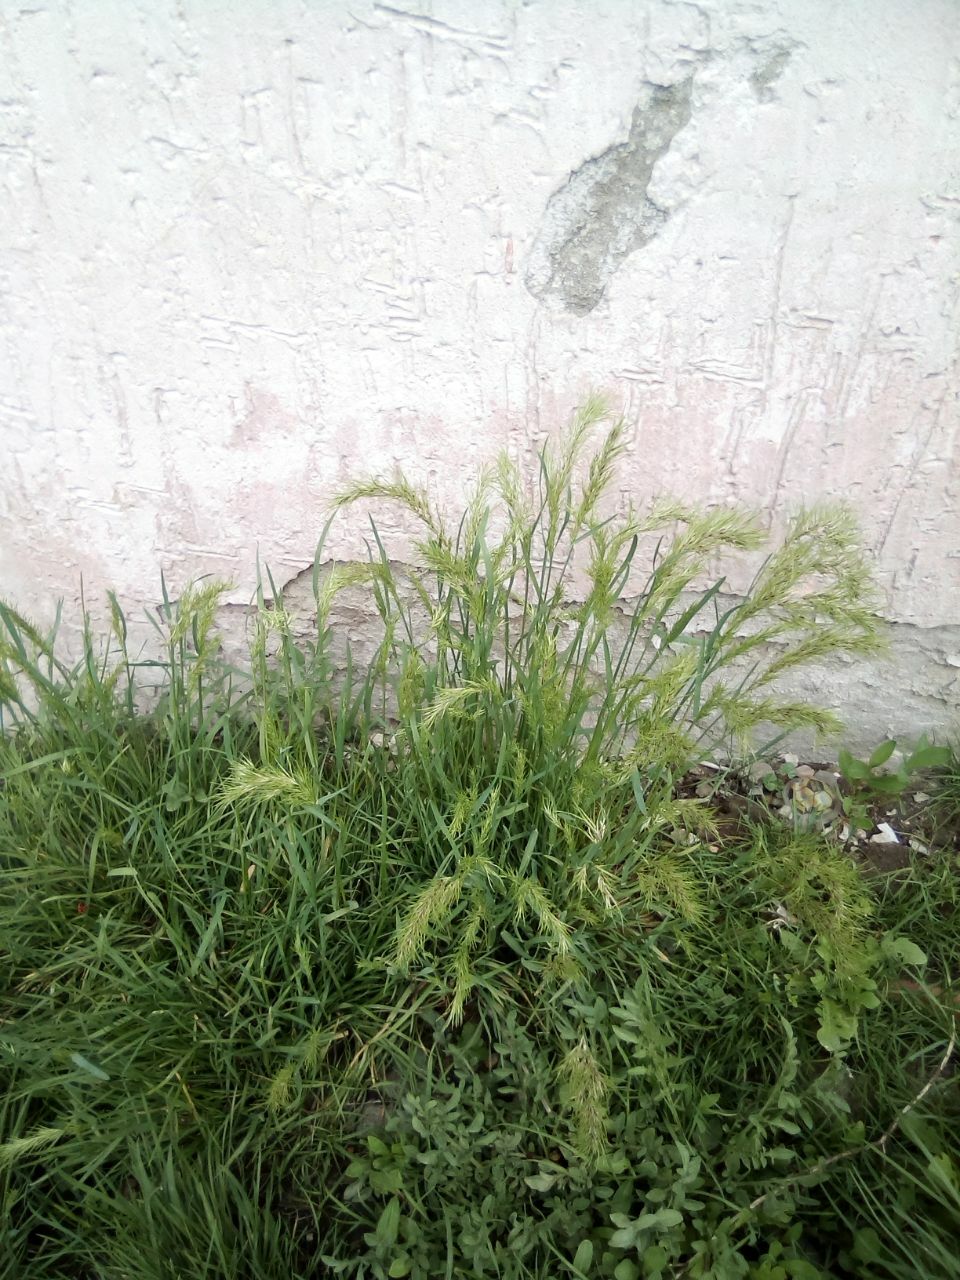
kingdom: Plantae
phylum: Tracheophyta
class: Liliopsida
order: Poales
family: Poaceae
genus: Poa
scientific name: Poa bulbosa
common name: Bulbous bluegrass
